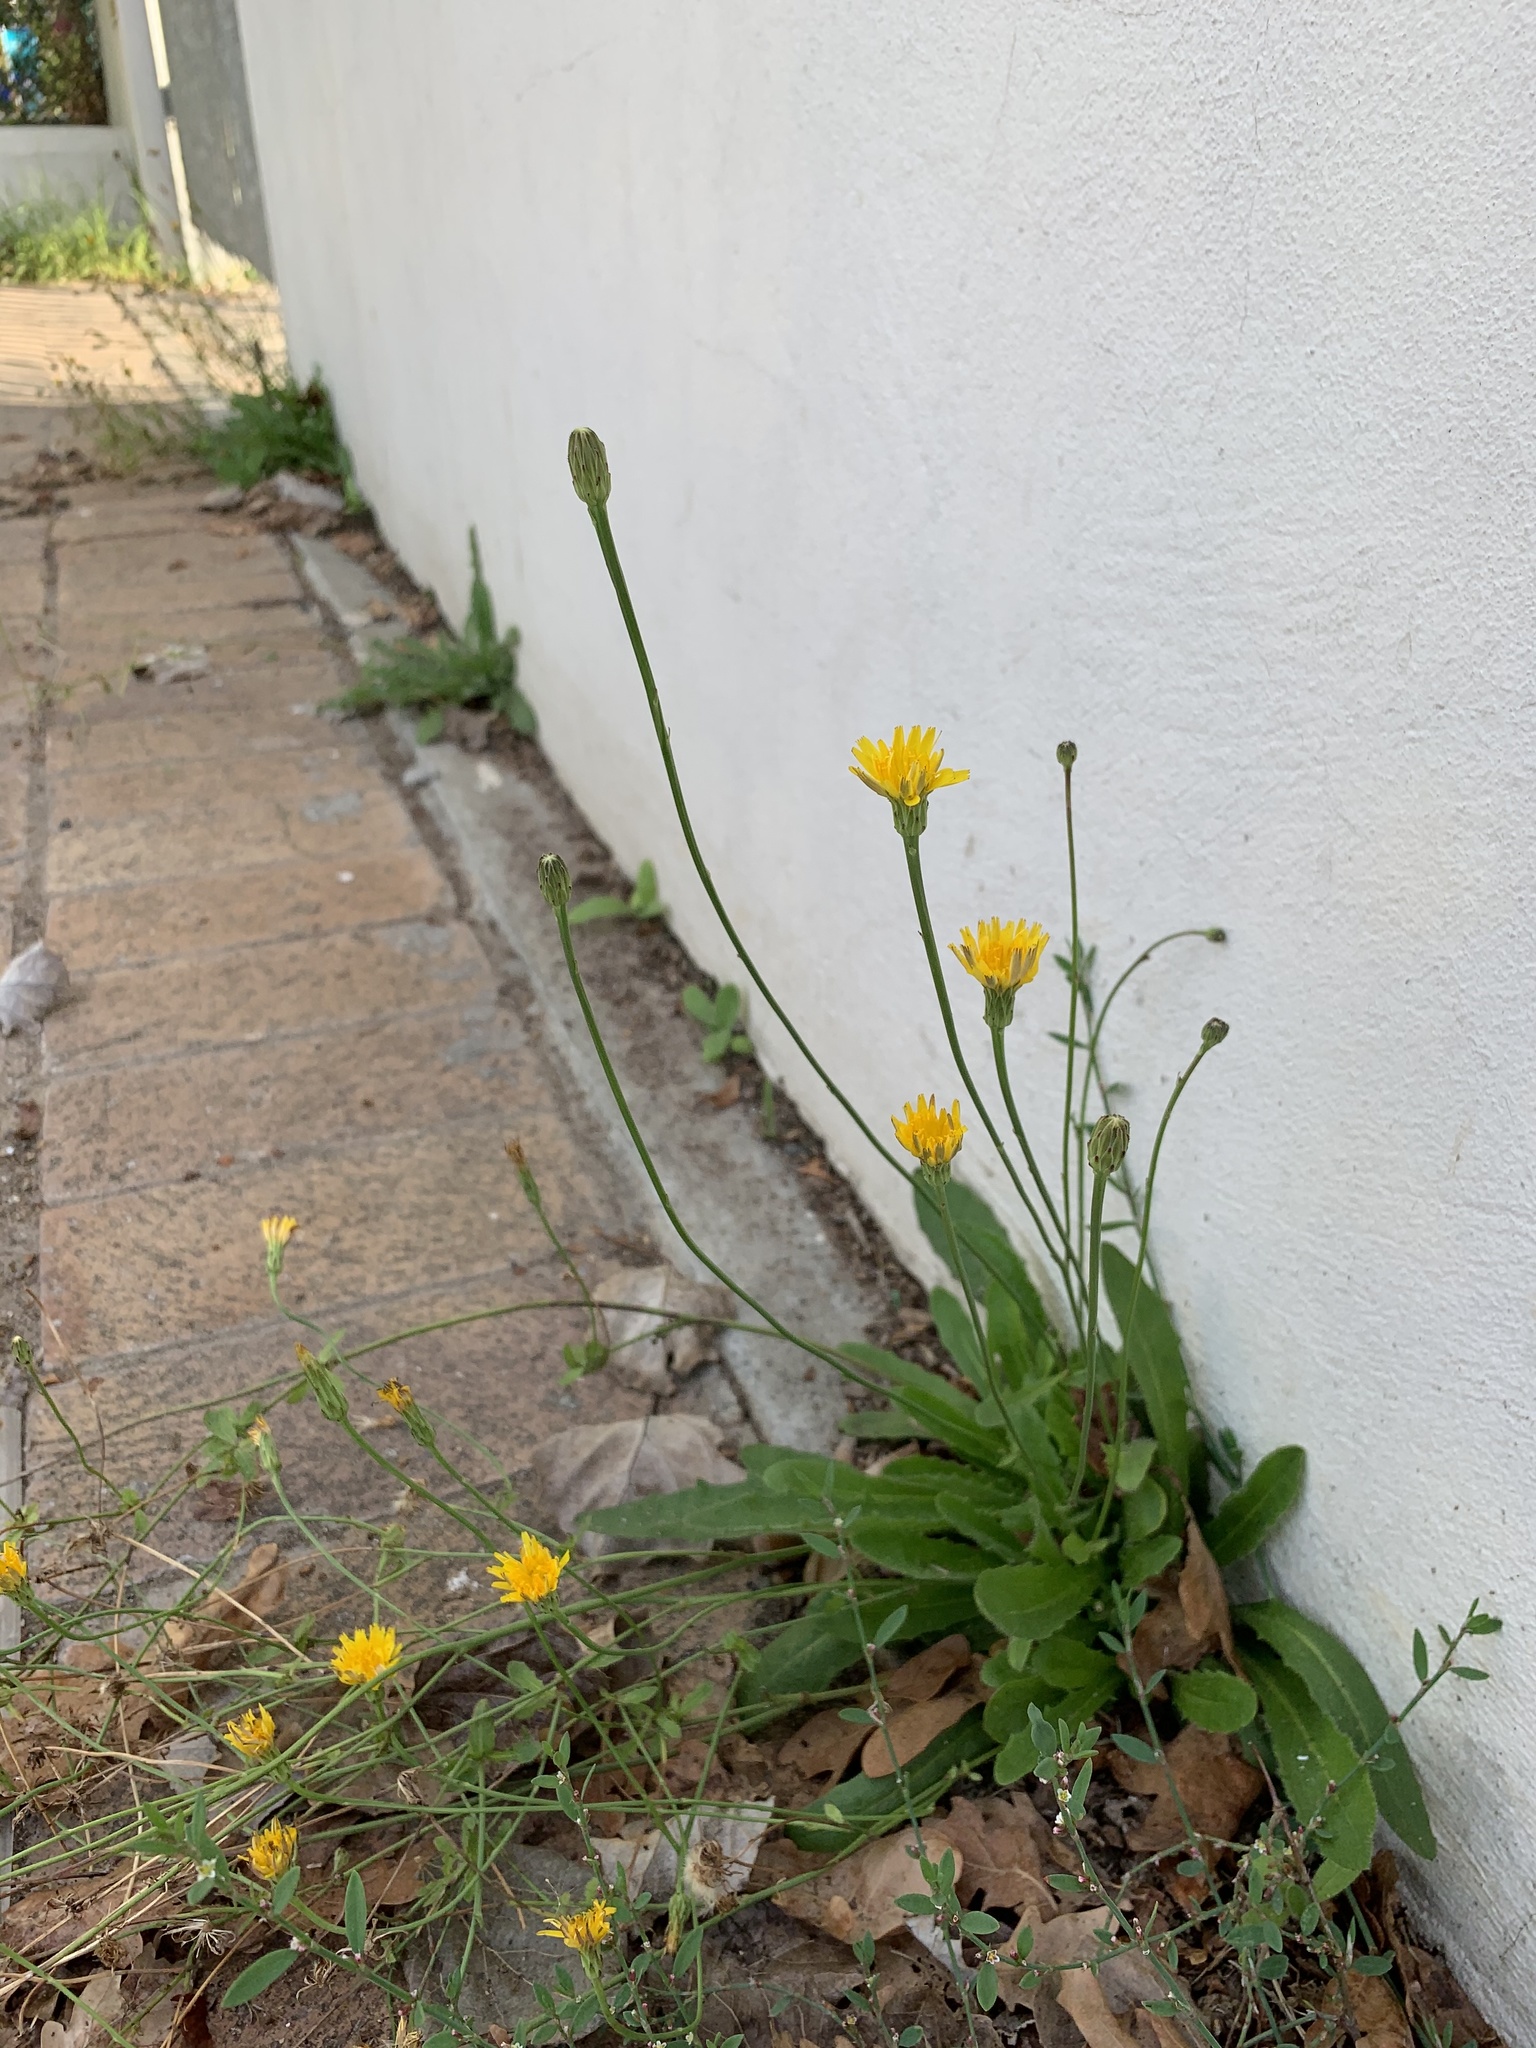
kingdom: Plantae
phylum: Tracheophyta
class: Magnoliopsida
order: Asterales
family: Asteraceae
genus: Hypochaeris
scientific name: Hypochaeris radicata
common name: Flatweed
